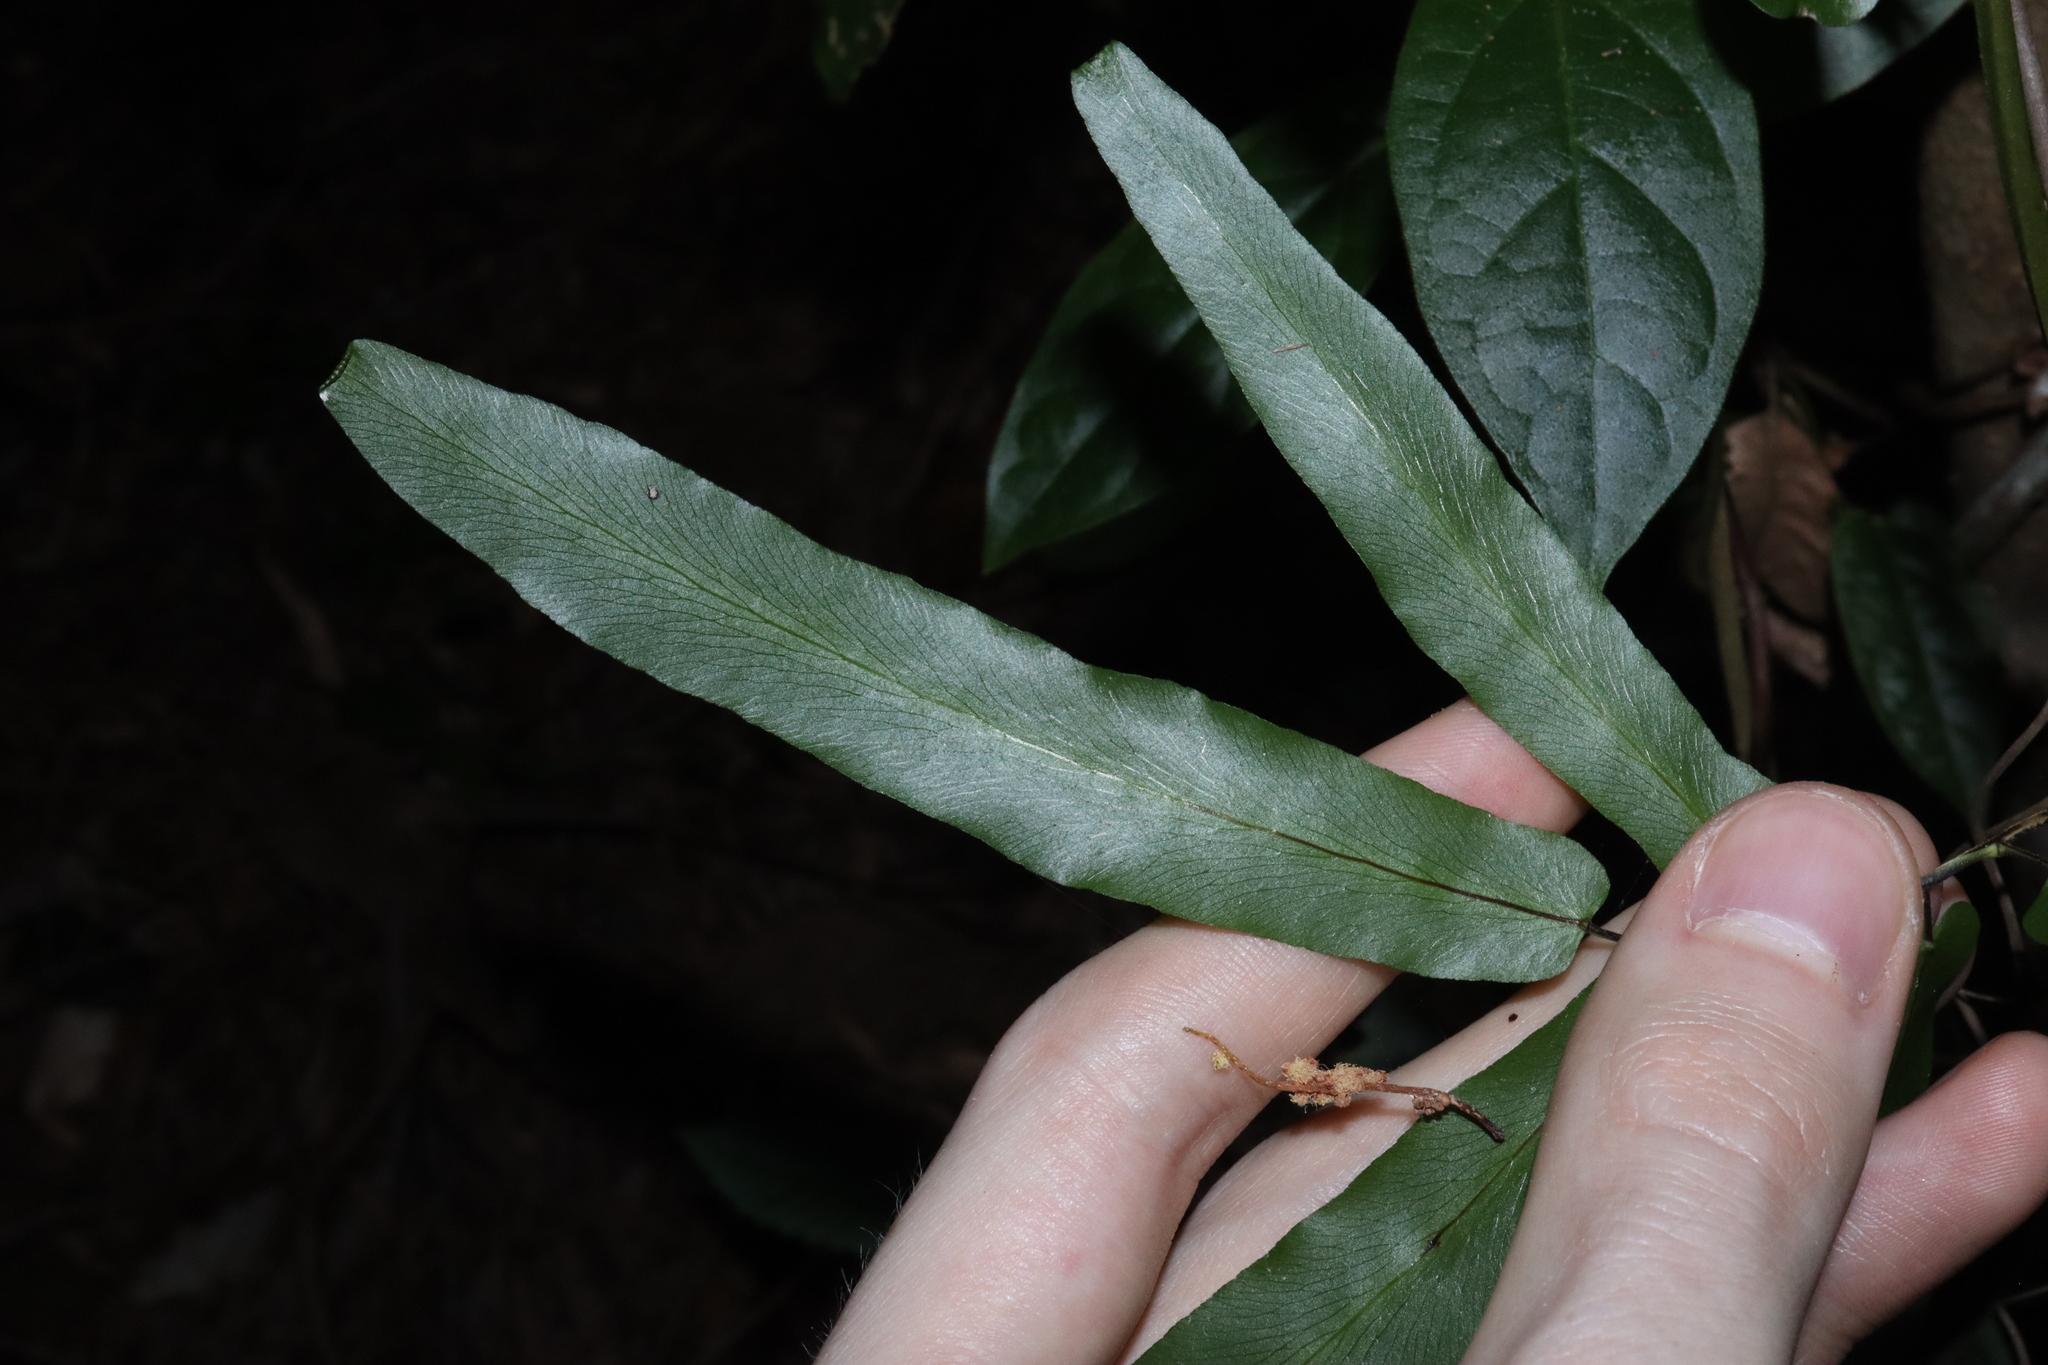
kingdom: Plantae
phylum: Tracheophyta
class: Polypodiopsida
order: Schizaeales
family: Lygodiaceae
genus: Lygodium
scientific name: Lygodium reticulatum
